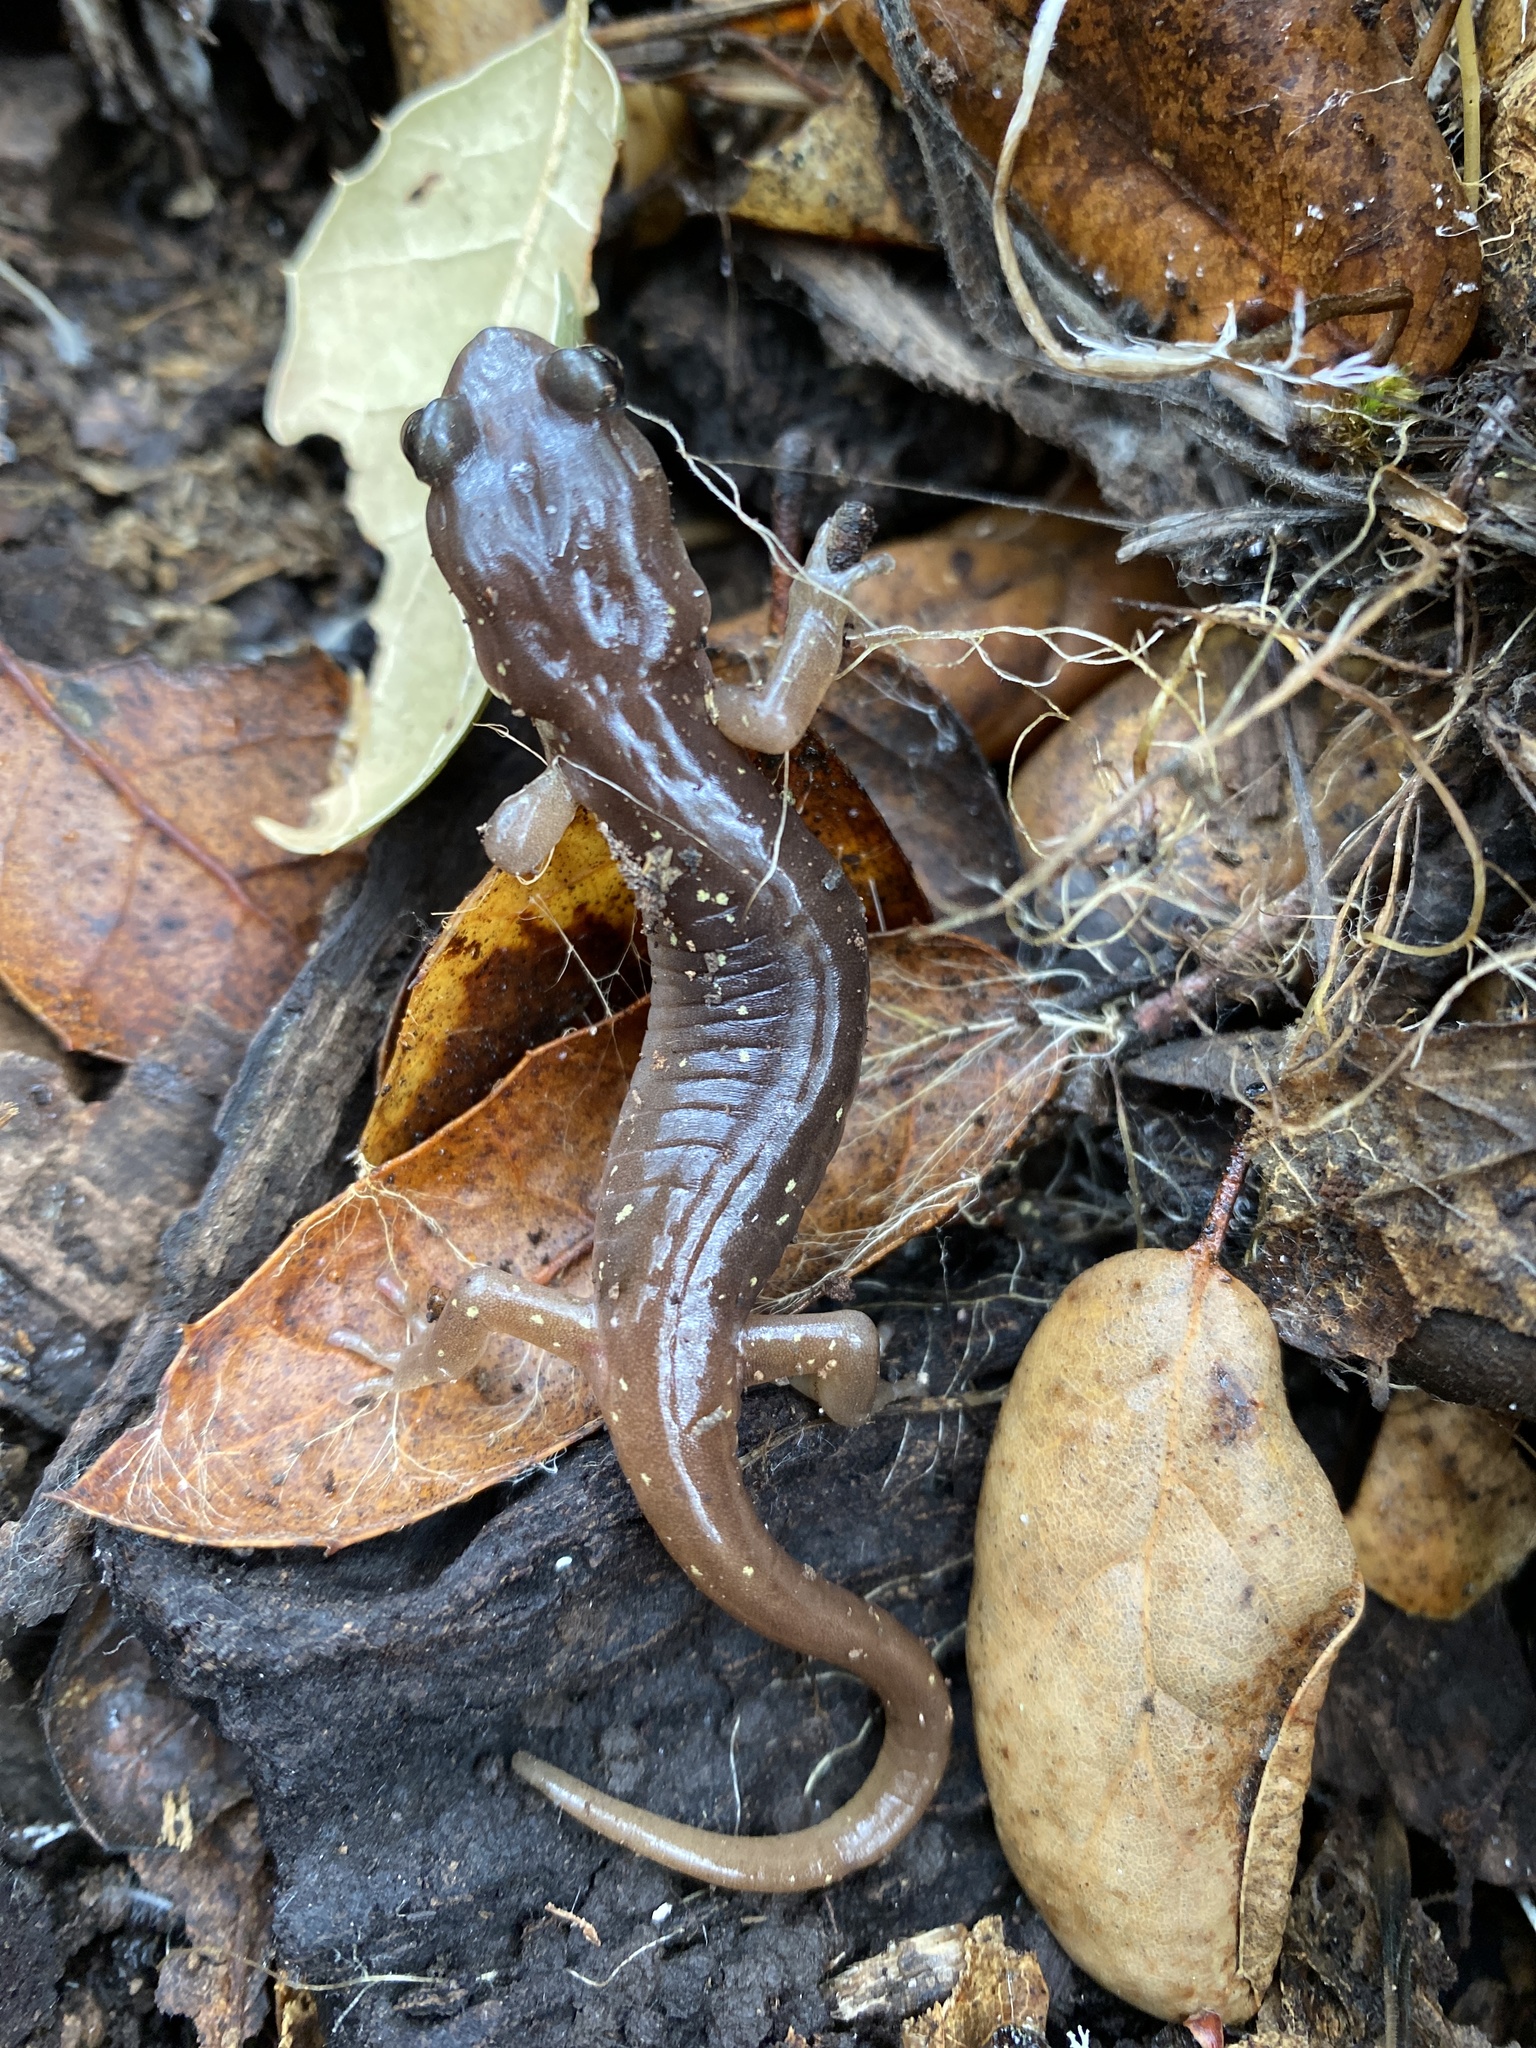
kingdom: Animalia
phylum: Chordata
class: Amphibia
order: Caudata
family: Plethodontidae
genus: Aneides
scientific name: Aneides lugubris
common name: Arboreal salamander
